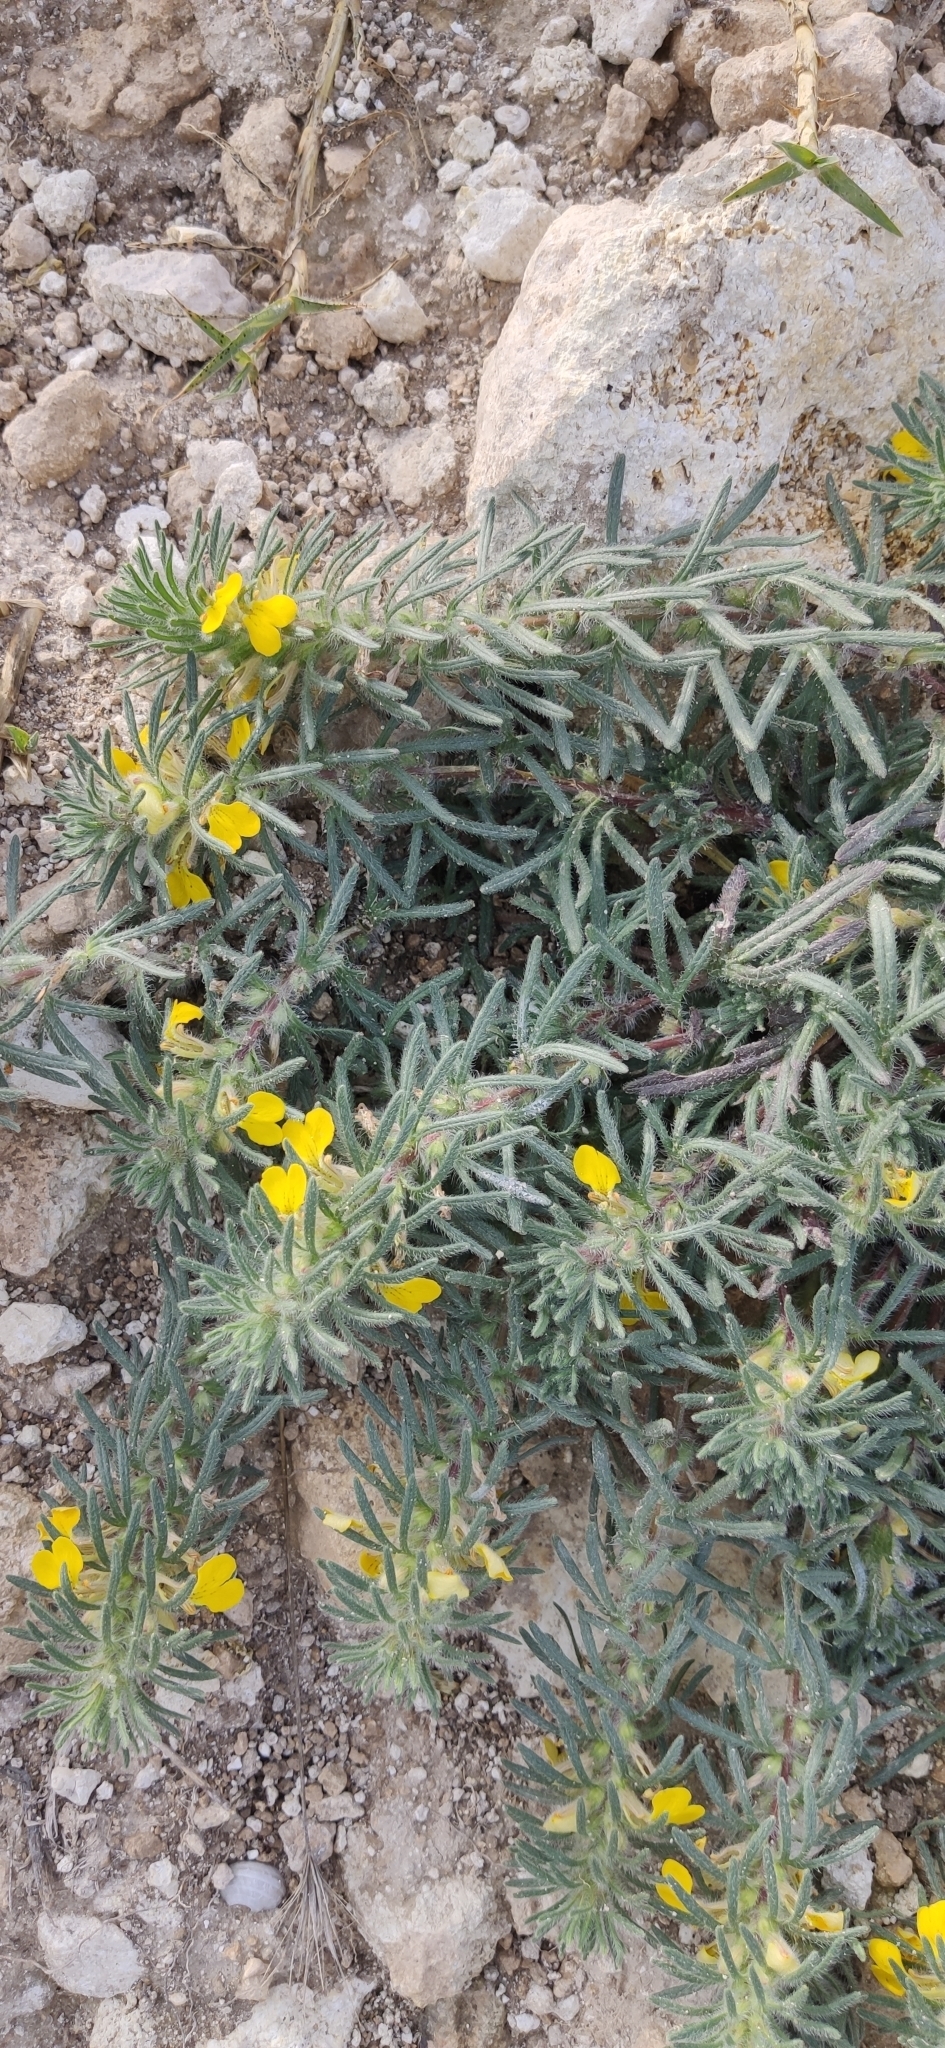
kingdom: Plantae
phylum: Tracheophyta
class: Magnoliopsida
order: Lamiales
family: Lamiaceae
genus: Ajuga
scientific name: Ajuga chamaepitys
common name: Ground-pine
